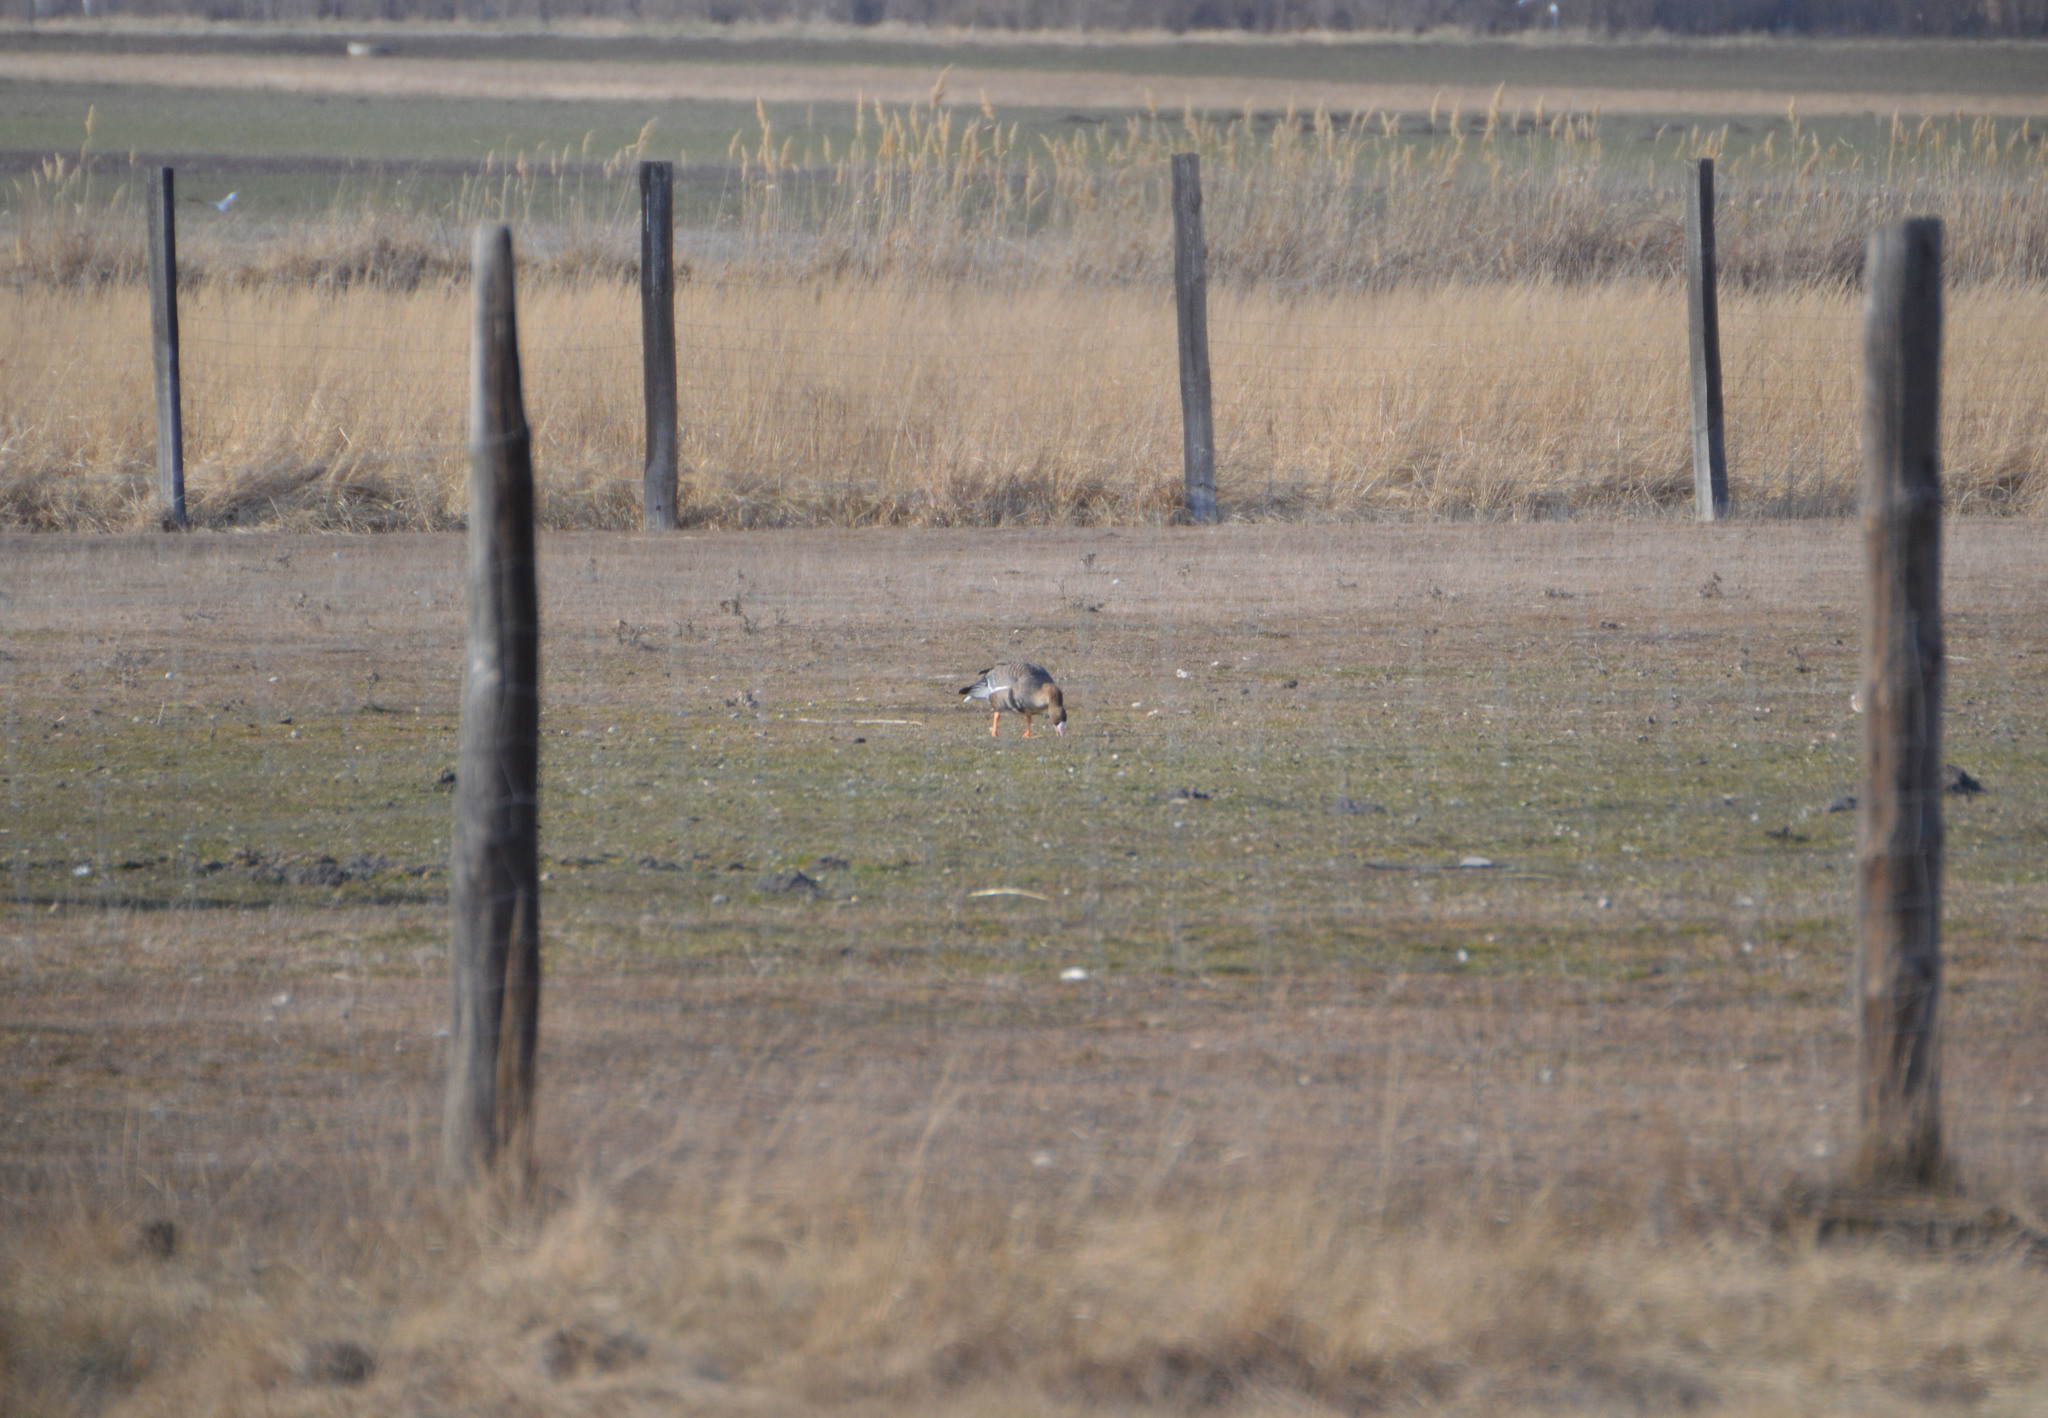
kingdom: Animalia
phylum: Chordata
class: Aves
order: Anseriformes
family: Anatidae
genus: Anser
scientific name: Anser albifrons
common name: Greater white-fronted goose
